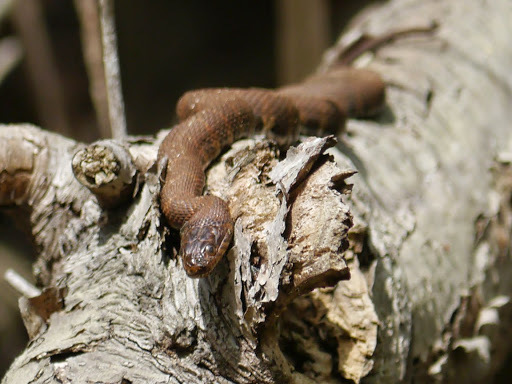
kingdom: Animalia
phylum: Chordata
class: Squamata
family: Colubridae
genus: Nerodia
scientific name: Nerodia sipedon
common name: Northern water snake
